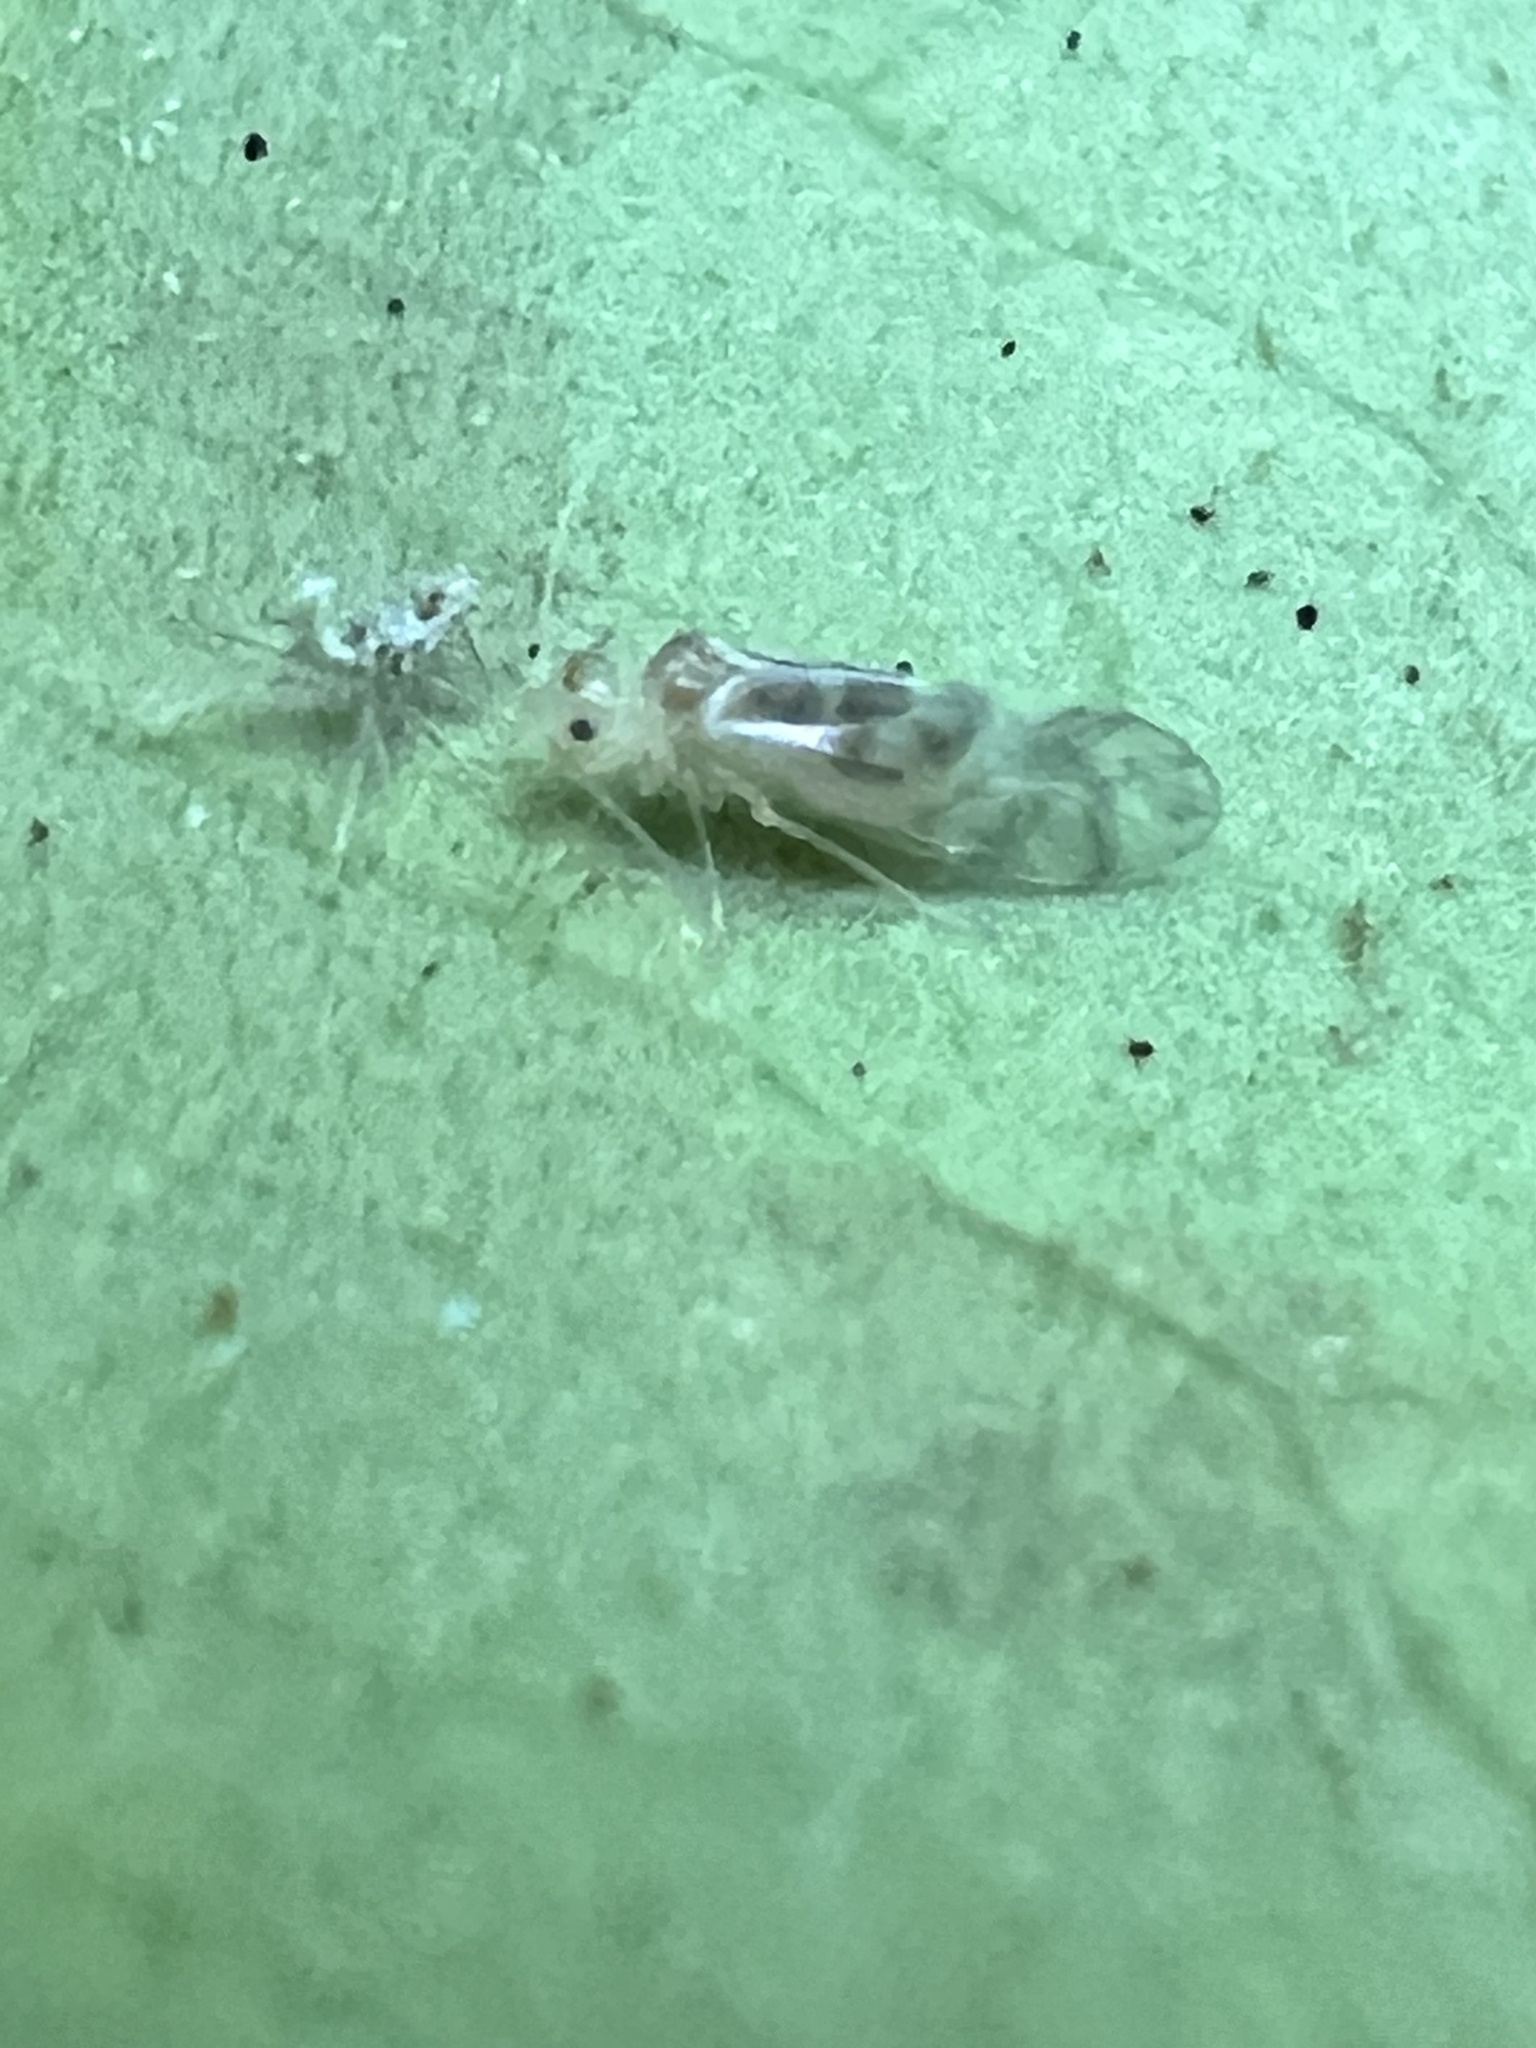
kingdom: Animalia
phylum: Arthropoda
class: Insecta
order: Psocodea
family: Stenopsocidae
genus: Graphopsocus
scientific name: Graphopsocus cruciatus
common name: Lizard bark louse
